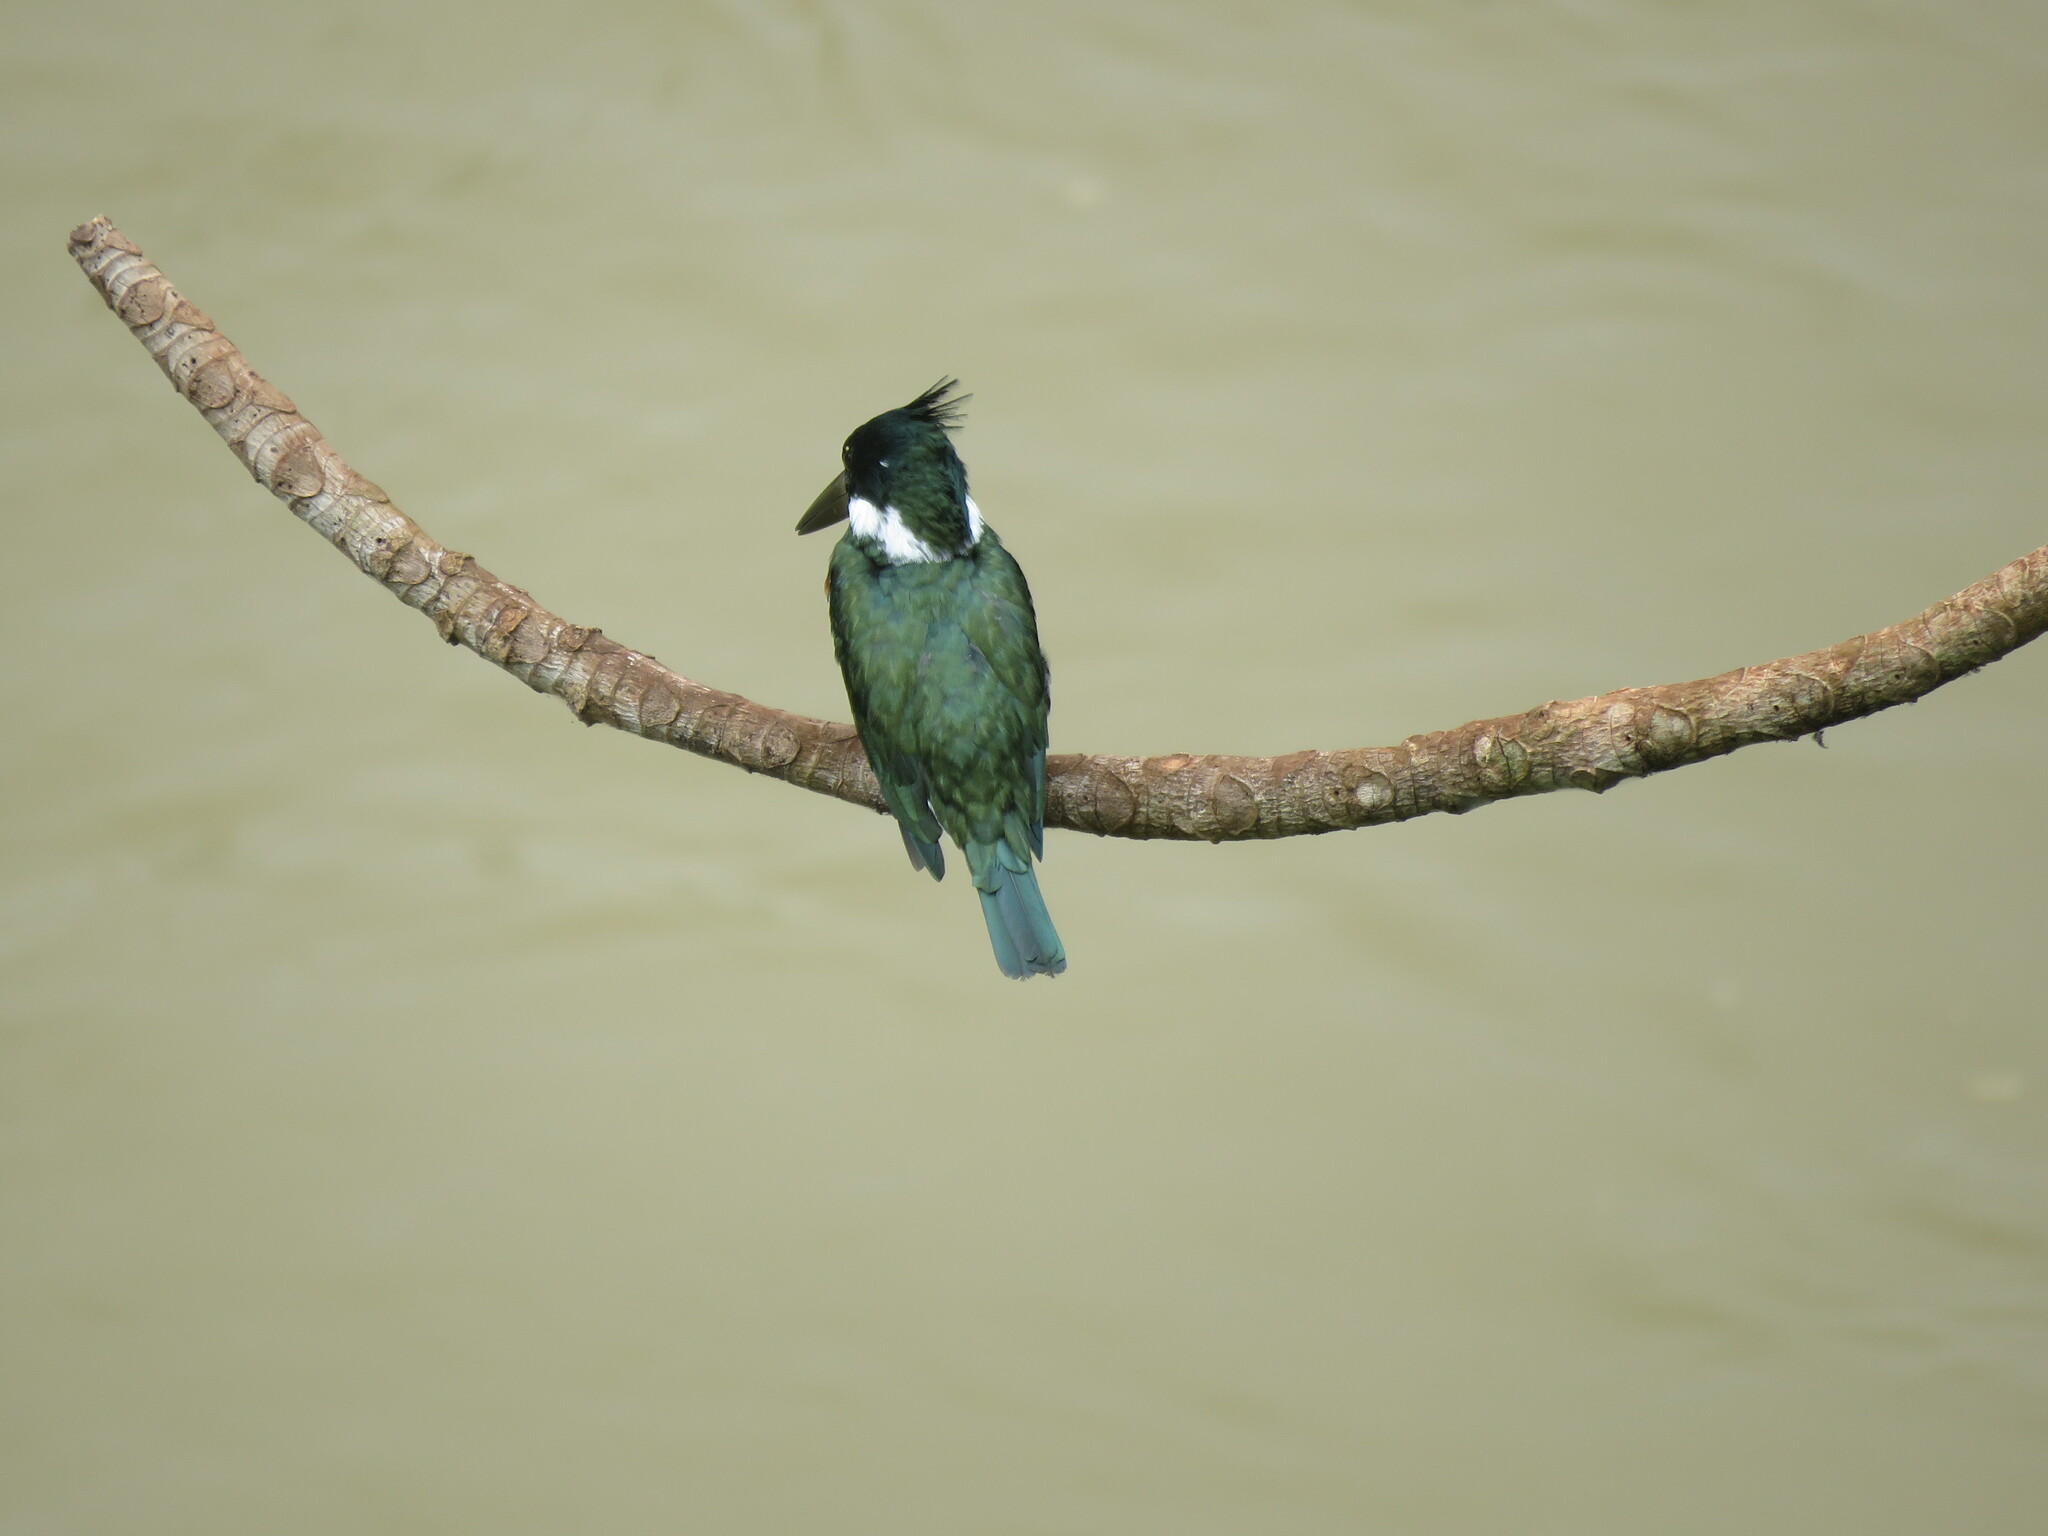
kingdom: Animalia
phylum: Chordata
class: Aves
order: Coraciiformes
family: Alcedinidae
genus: Chloroceryle
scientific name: Chloroceryle amazona
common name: Amazon kingfisher
